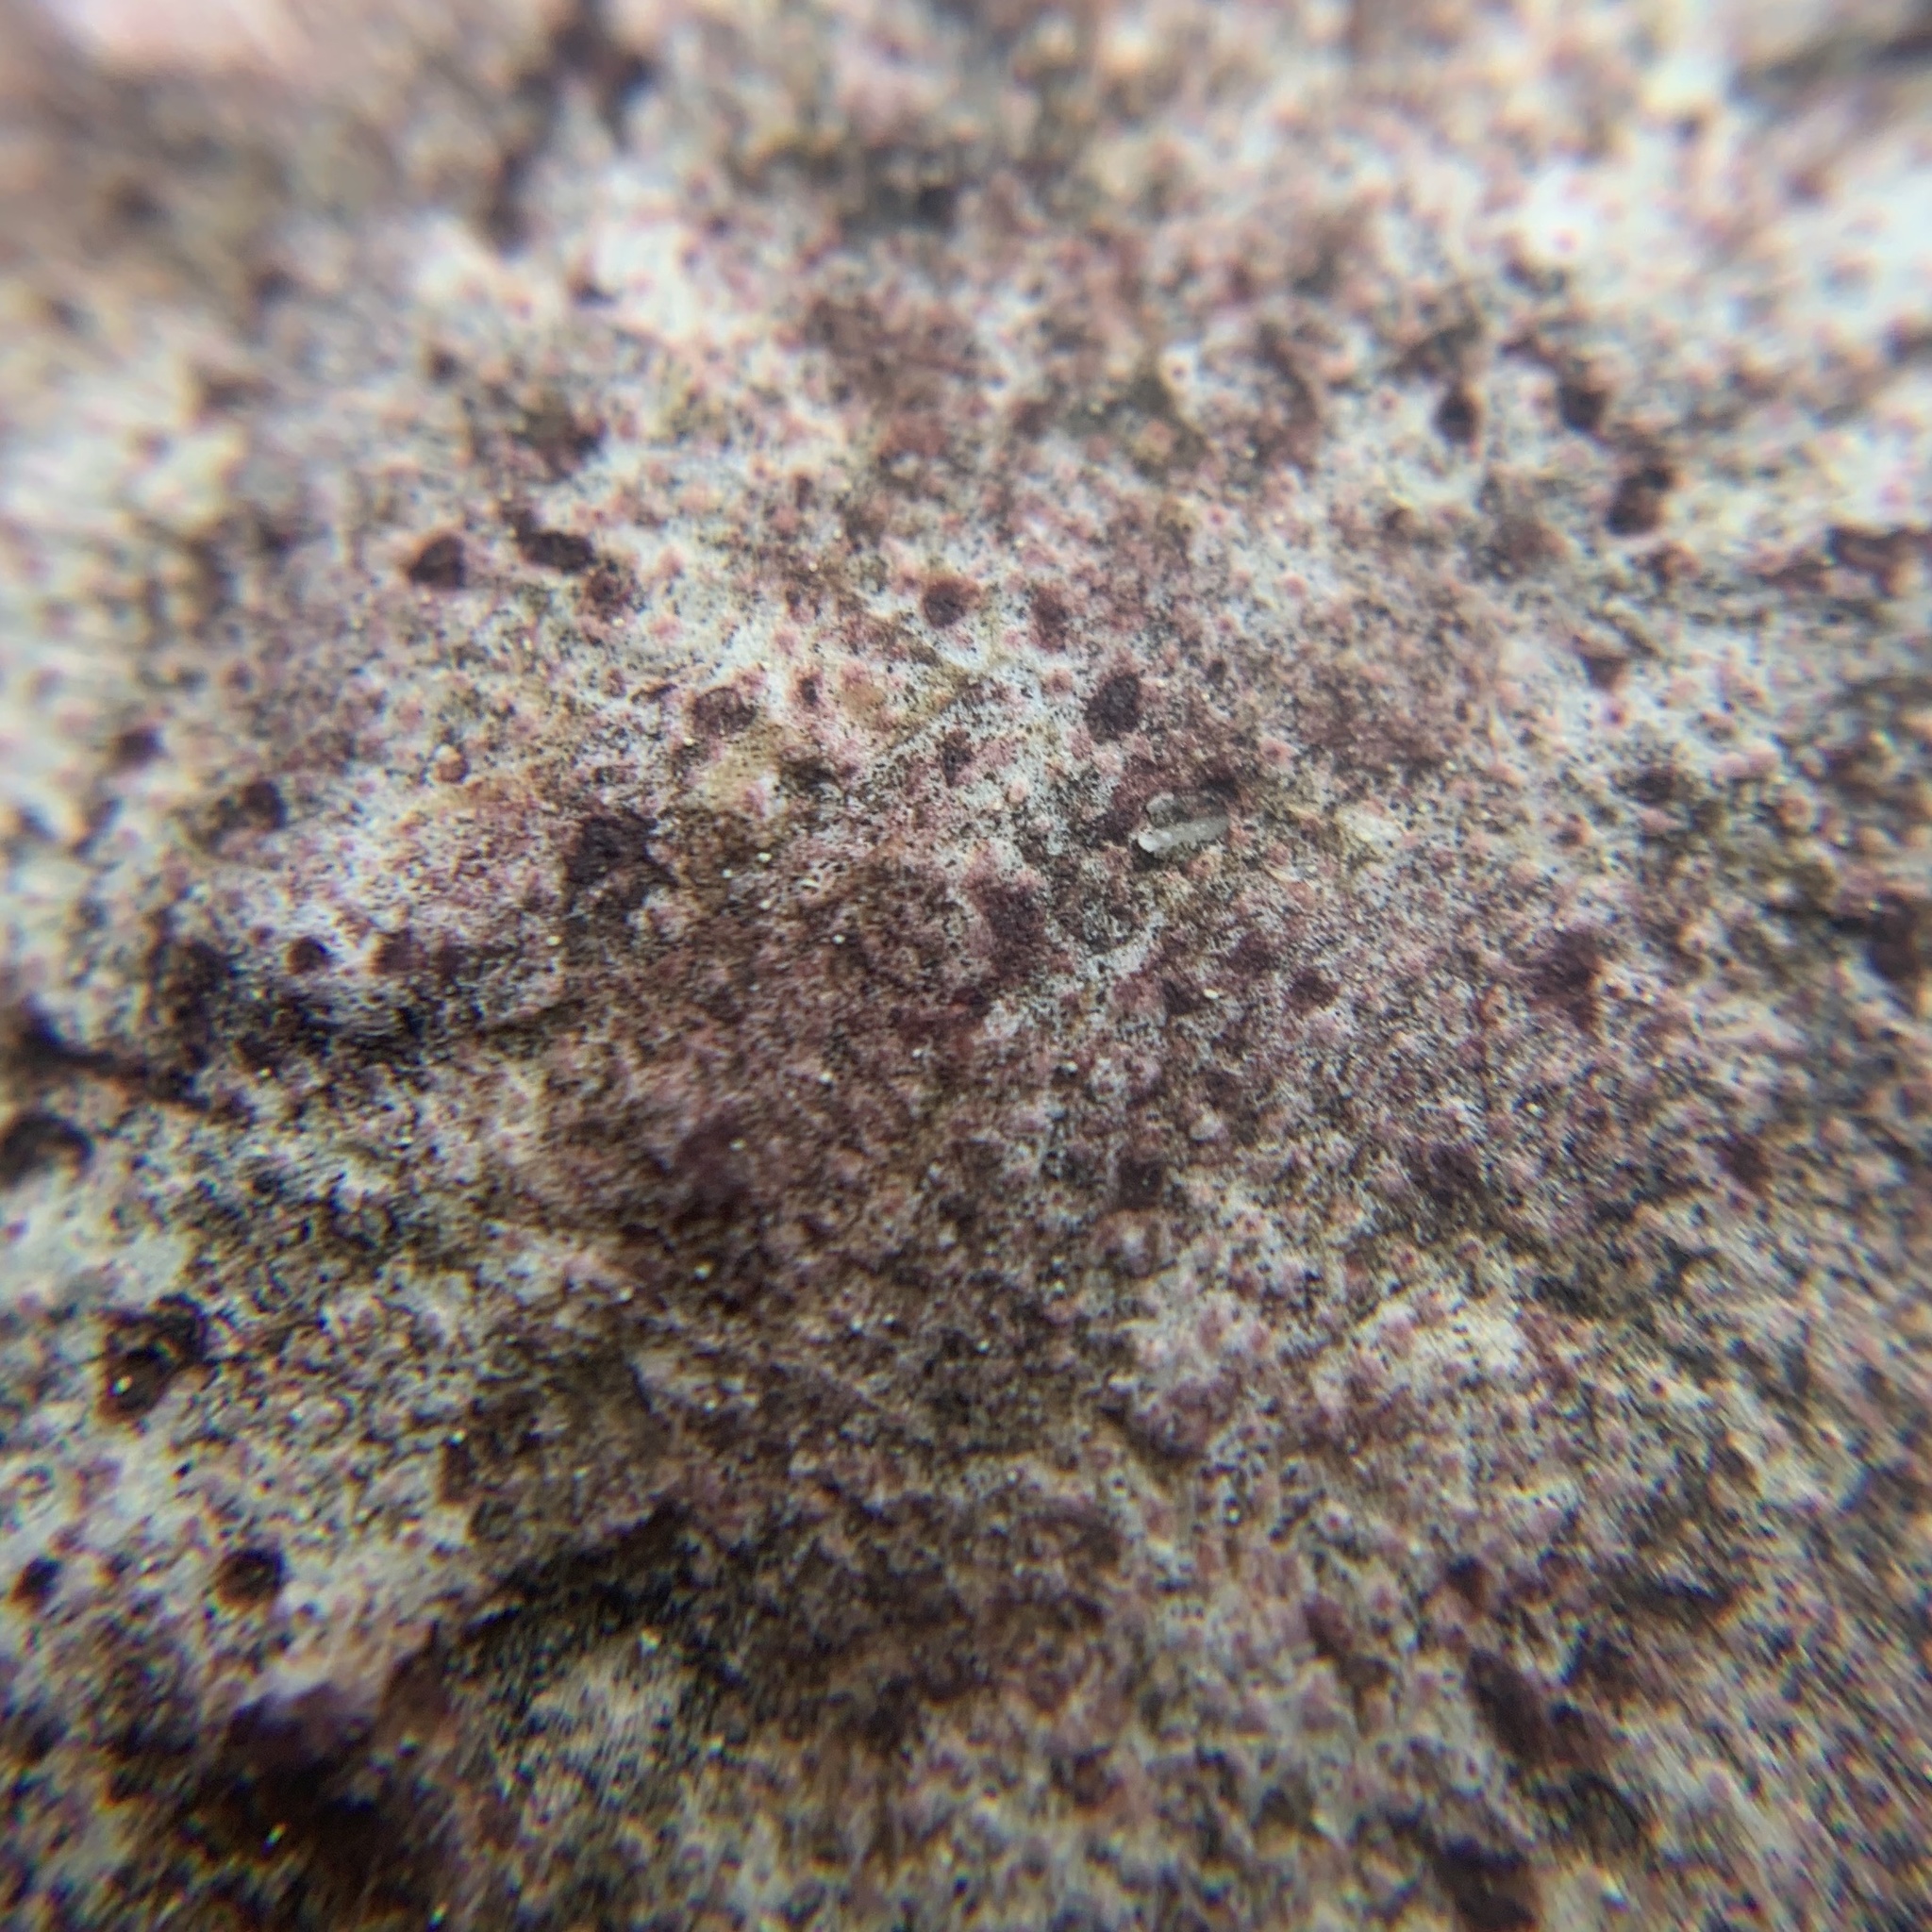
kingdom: Fungi
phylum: Ascomycota
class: Eurotiomycetes
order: Verrucariales
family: Verrucariaceae
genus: Bagliettoa
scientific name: Bagliettoa marmorea
